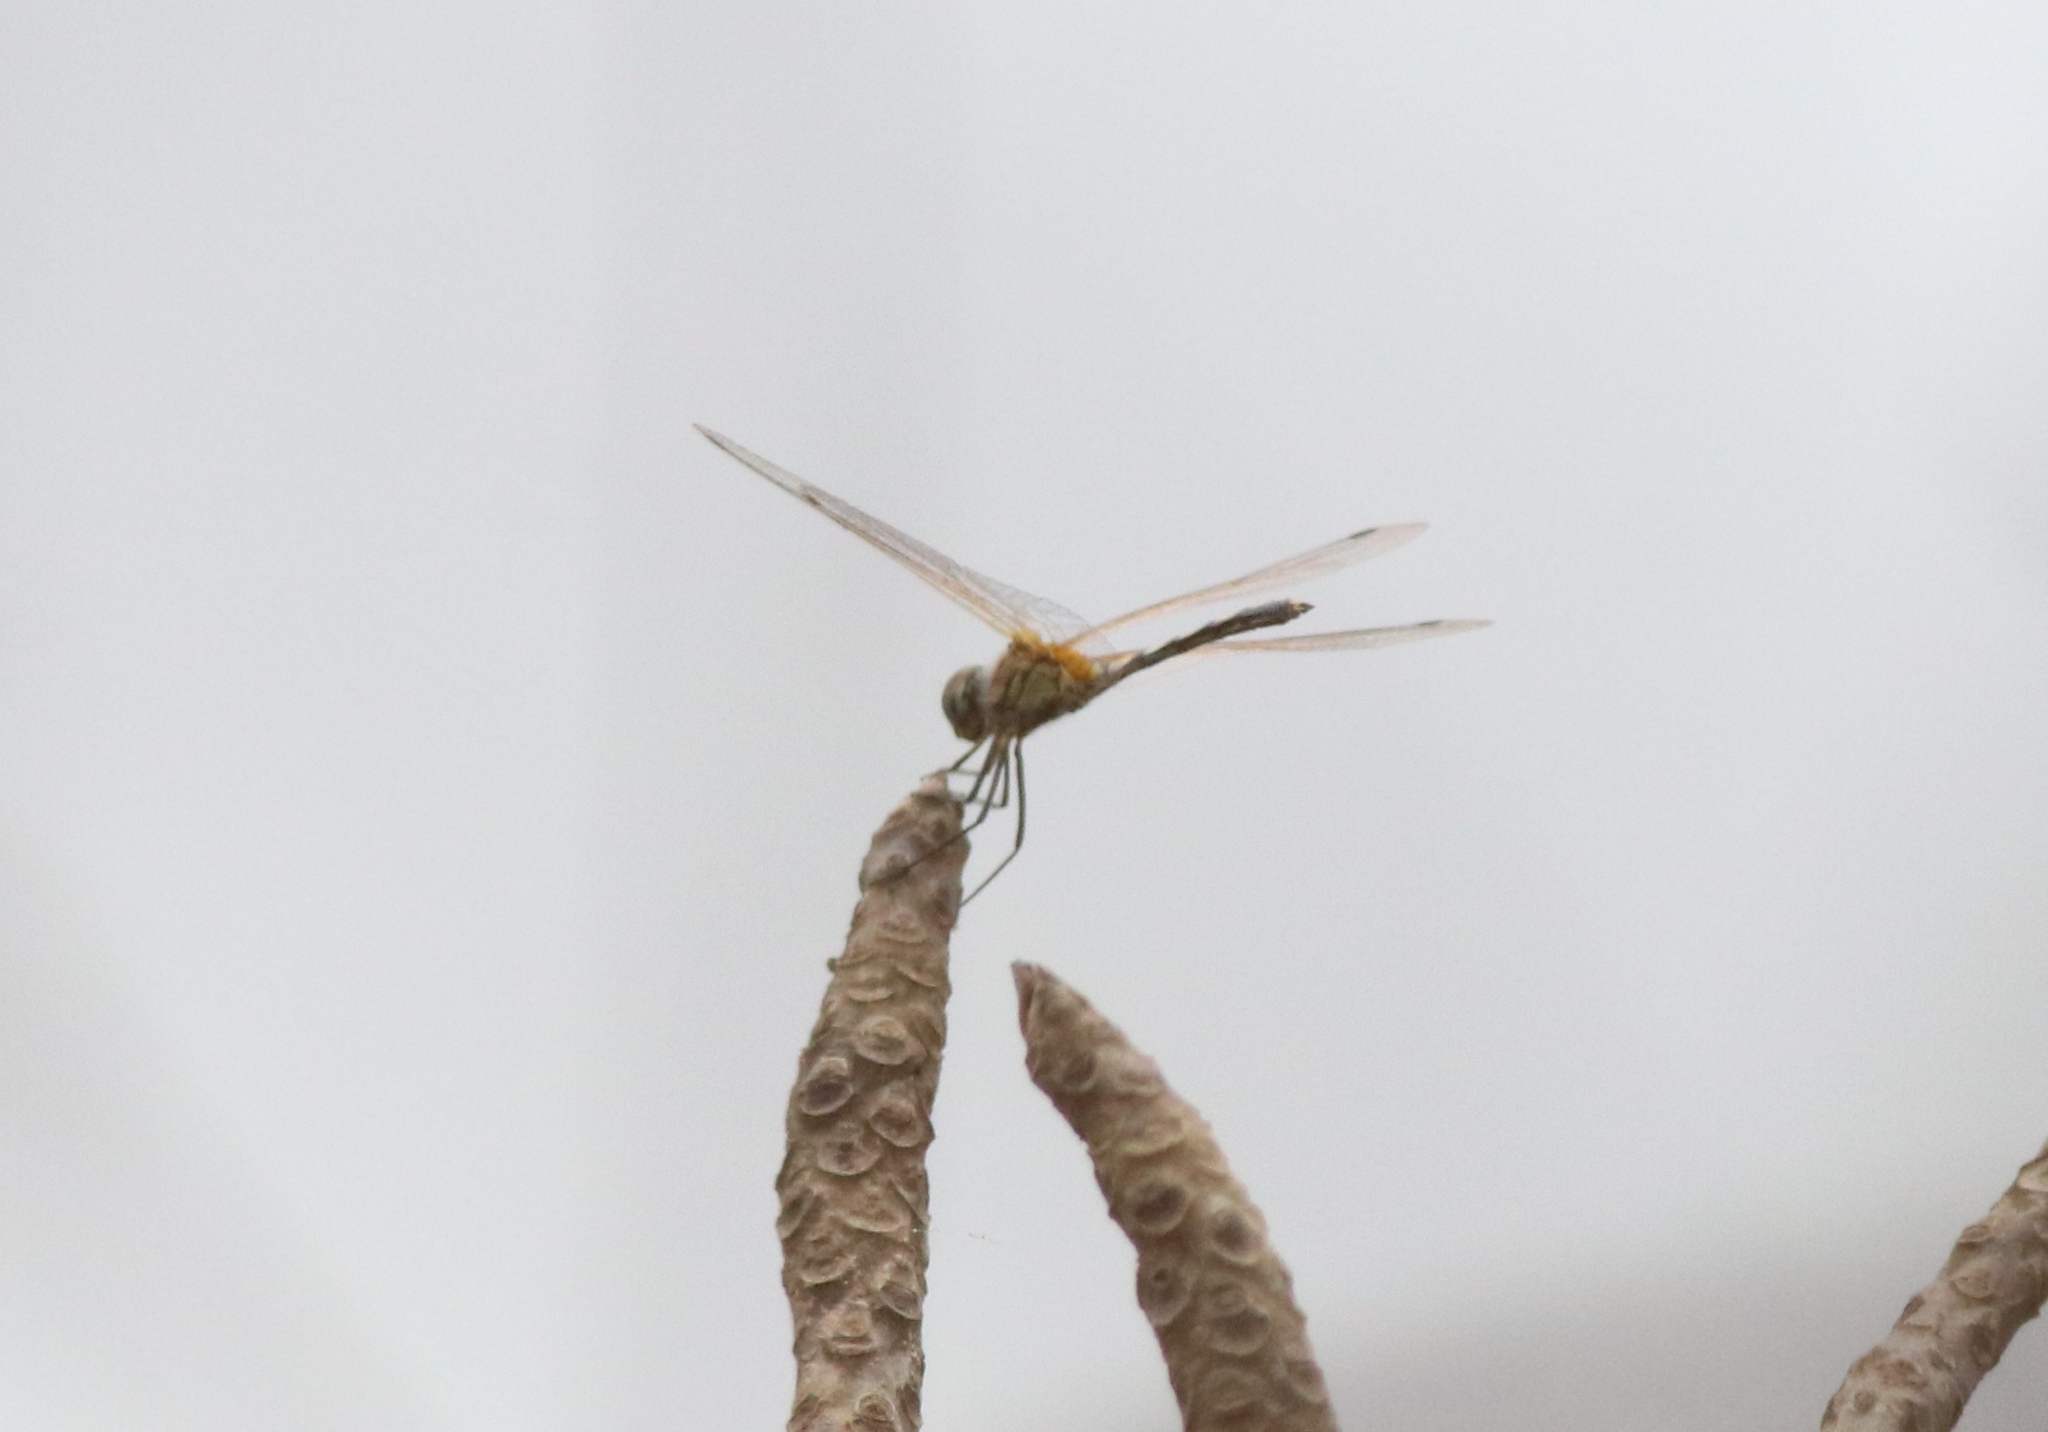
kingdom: Animalia
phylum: Arthropoda
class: Insecta
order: Odonata
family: Libellulidae
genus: Trithemis
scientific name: Trithemis pallidinervis
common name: Dancing dropwing
